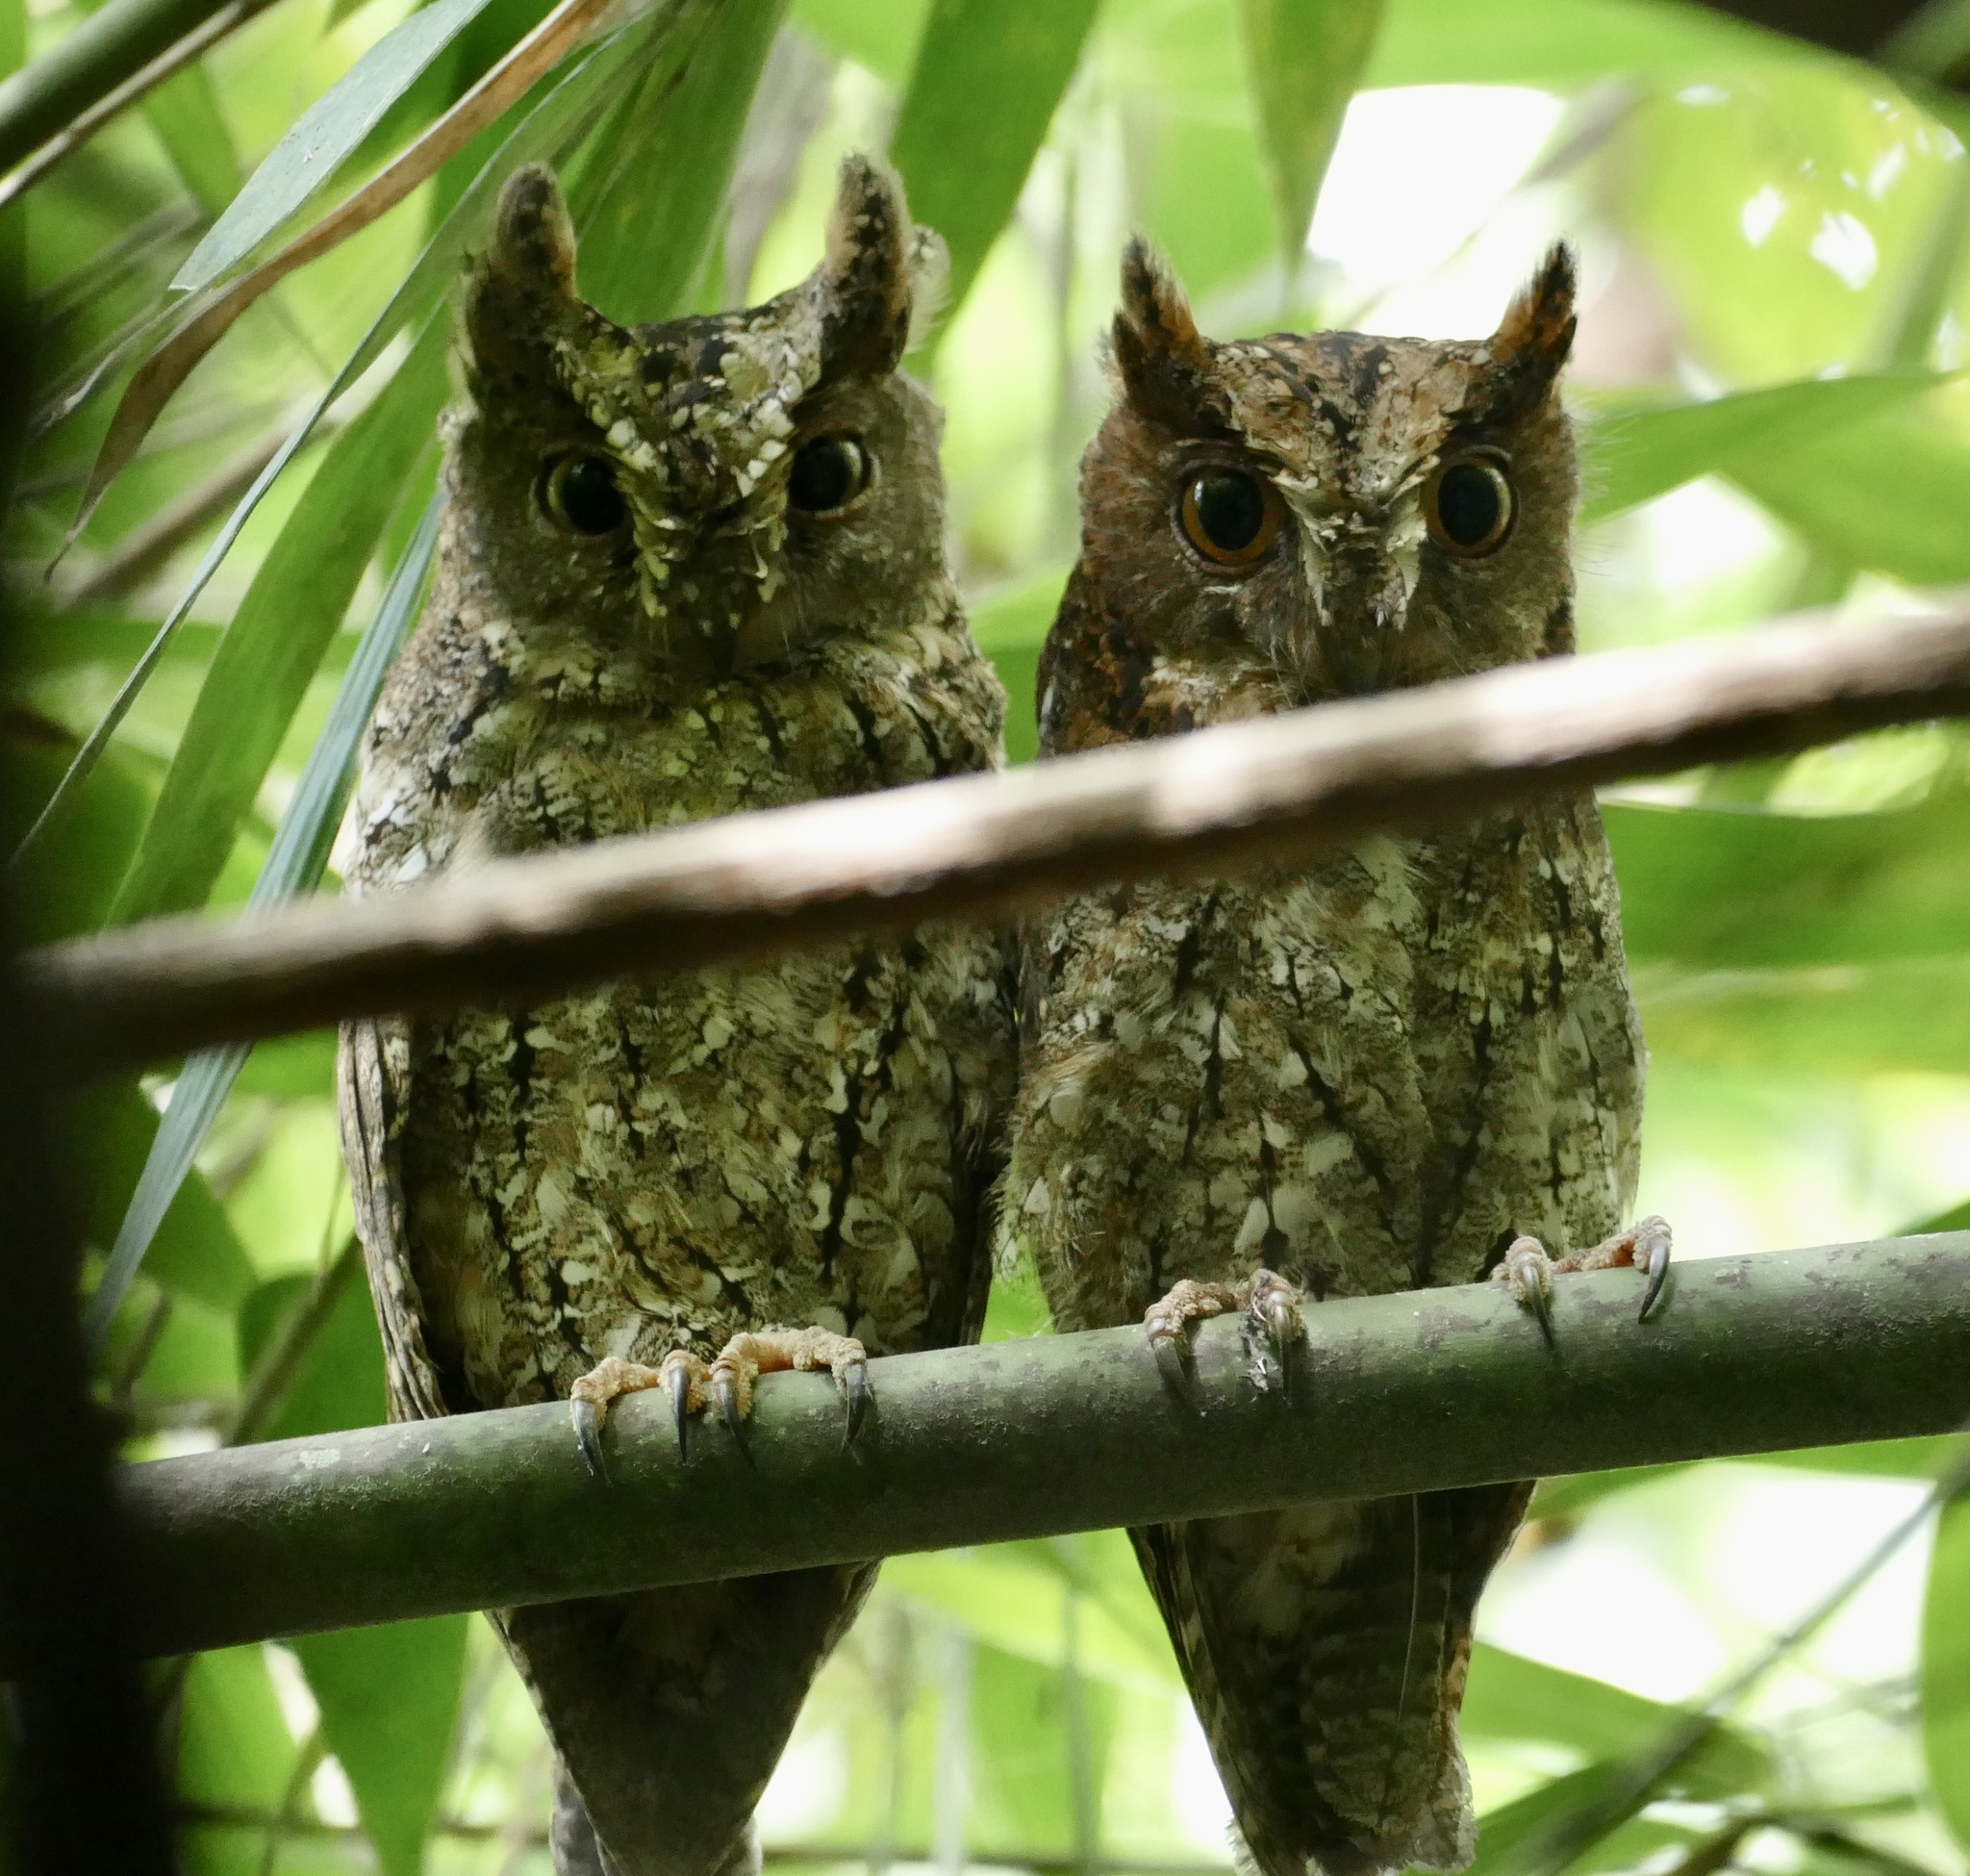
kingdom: Animalia
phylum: Chordata
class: Aves
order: Strigiformes
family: Strigidae
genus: Otus
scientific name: Otus manadensis
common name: Sulawesi scops owl
